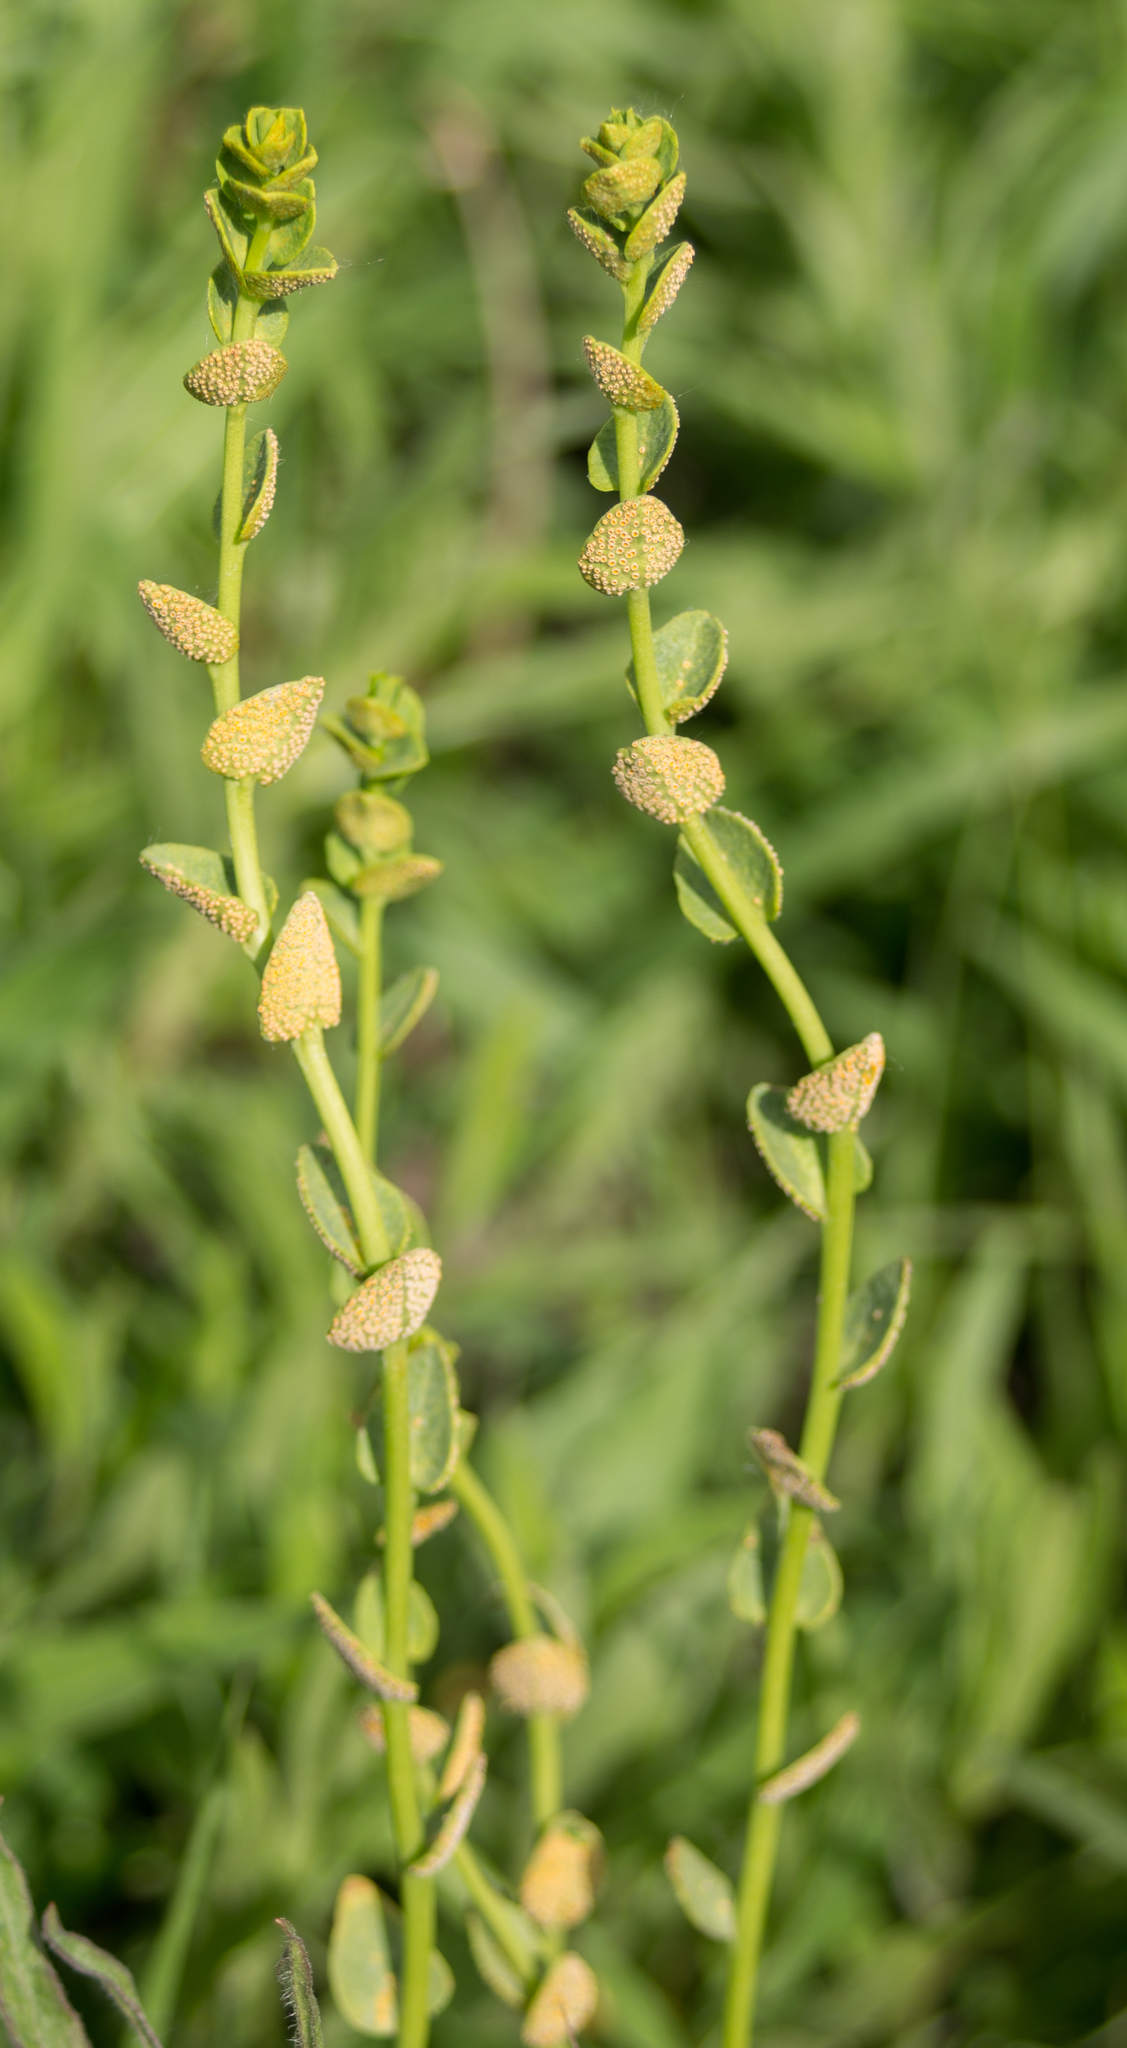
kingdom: Plantae
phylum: Tracheophyta
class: Magnoliopsida
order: Malpighiales
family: Euphorbiaceae
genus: Euphorbia
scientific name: Euphorbia virgata
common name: Leafy spurge
